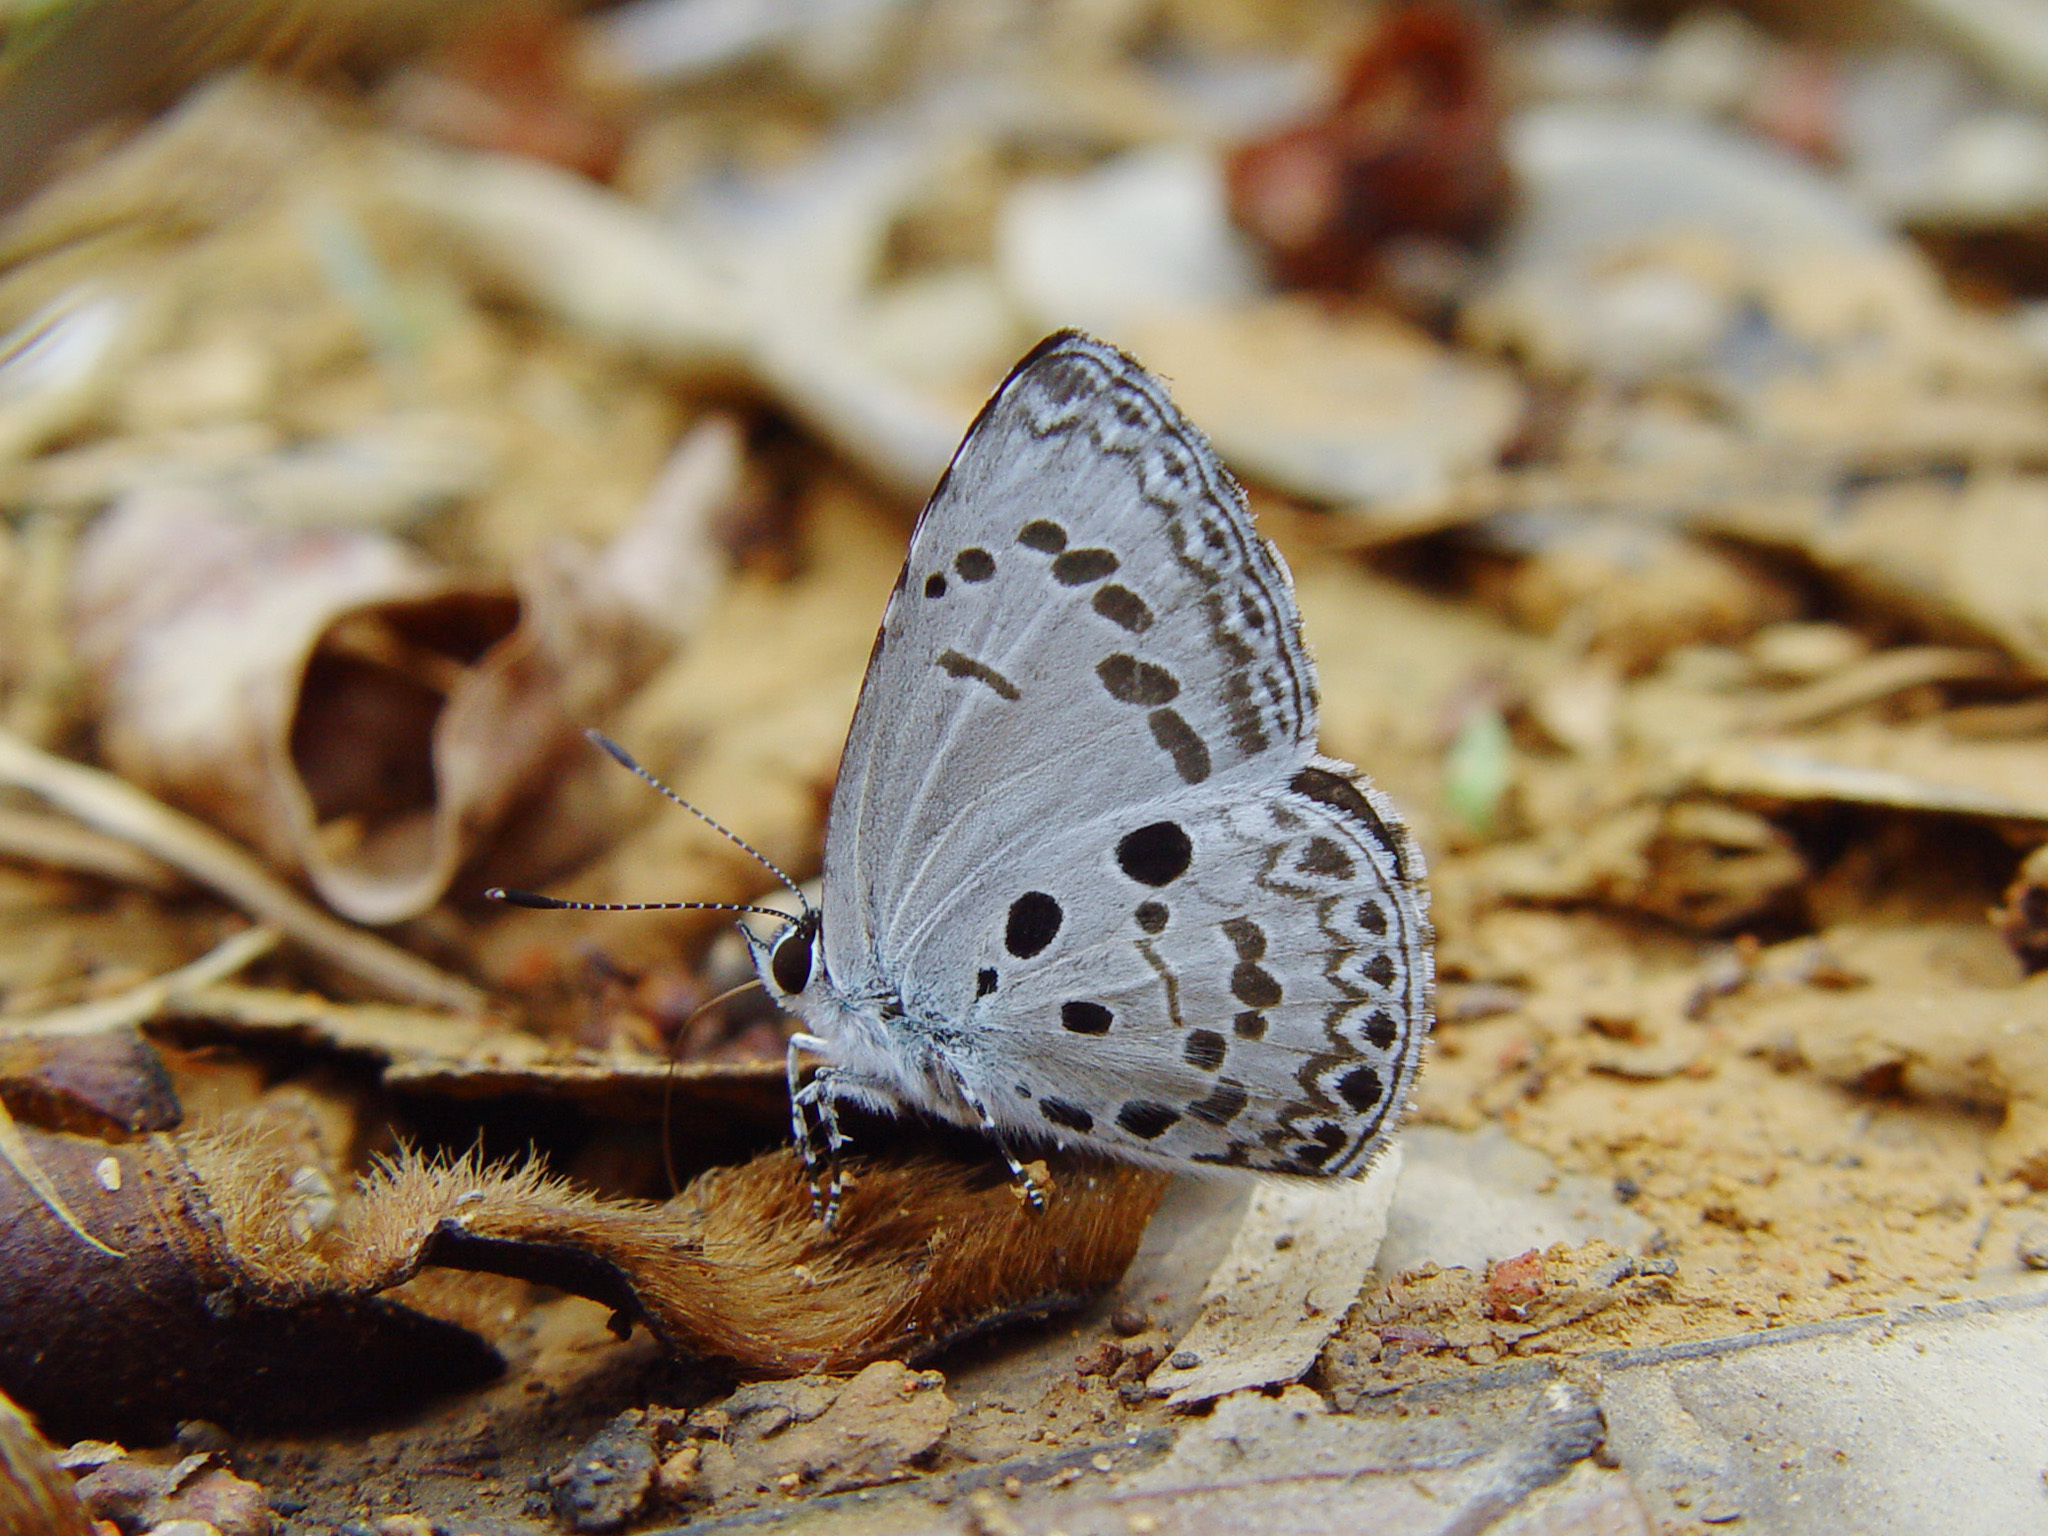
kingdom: Animalia
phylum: Arthropoda
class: Insecta
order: Lepidoptera
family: Lycaenidae
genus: Acytolepis
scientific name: Acytolepis puspa
